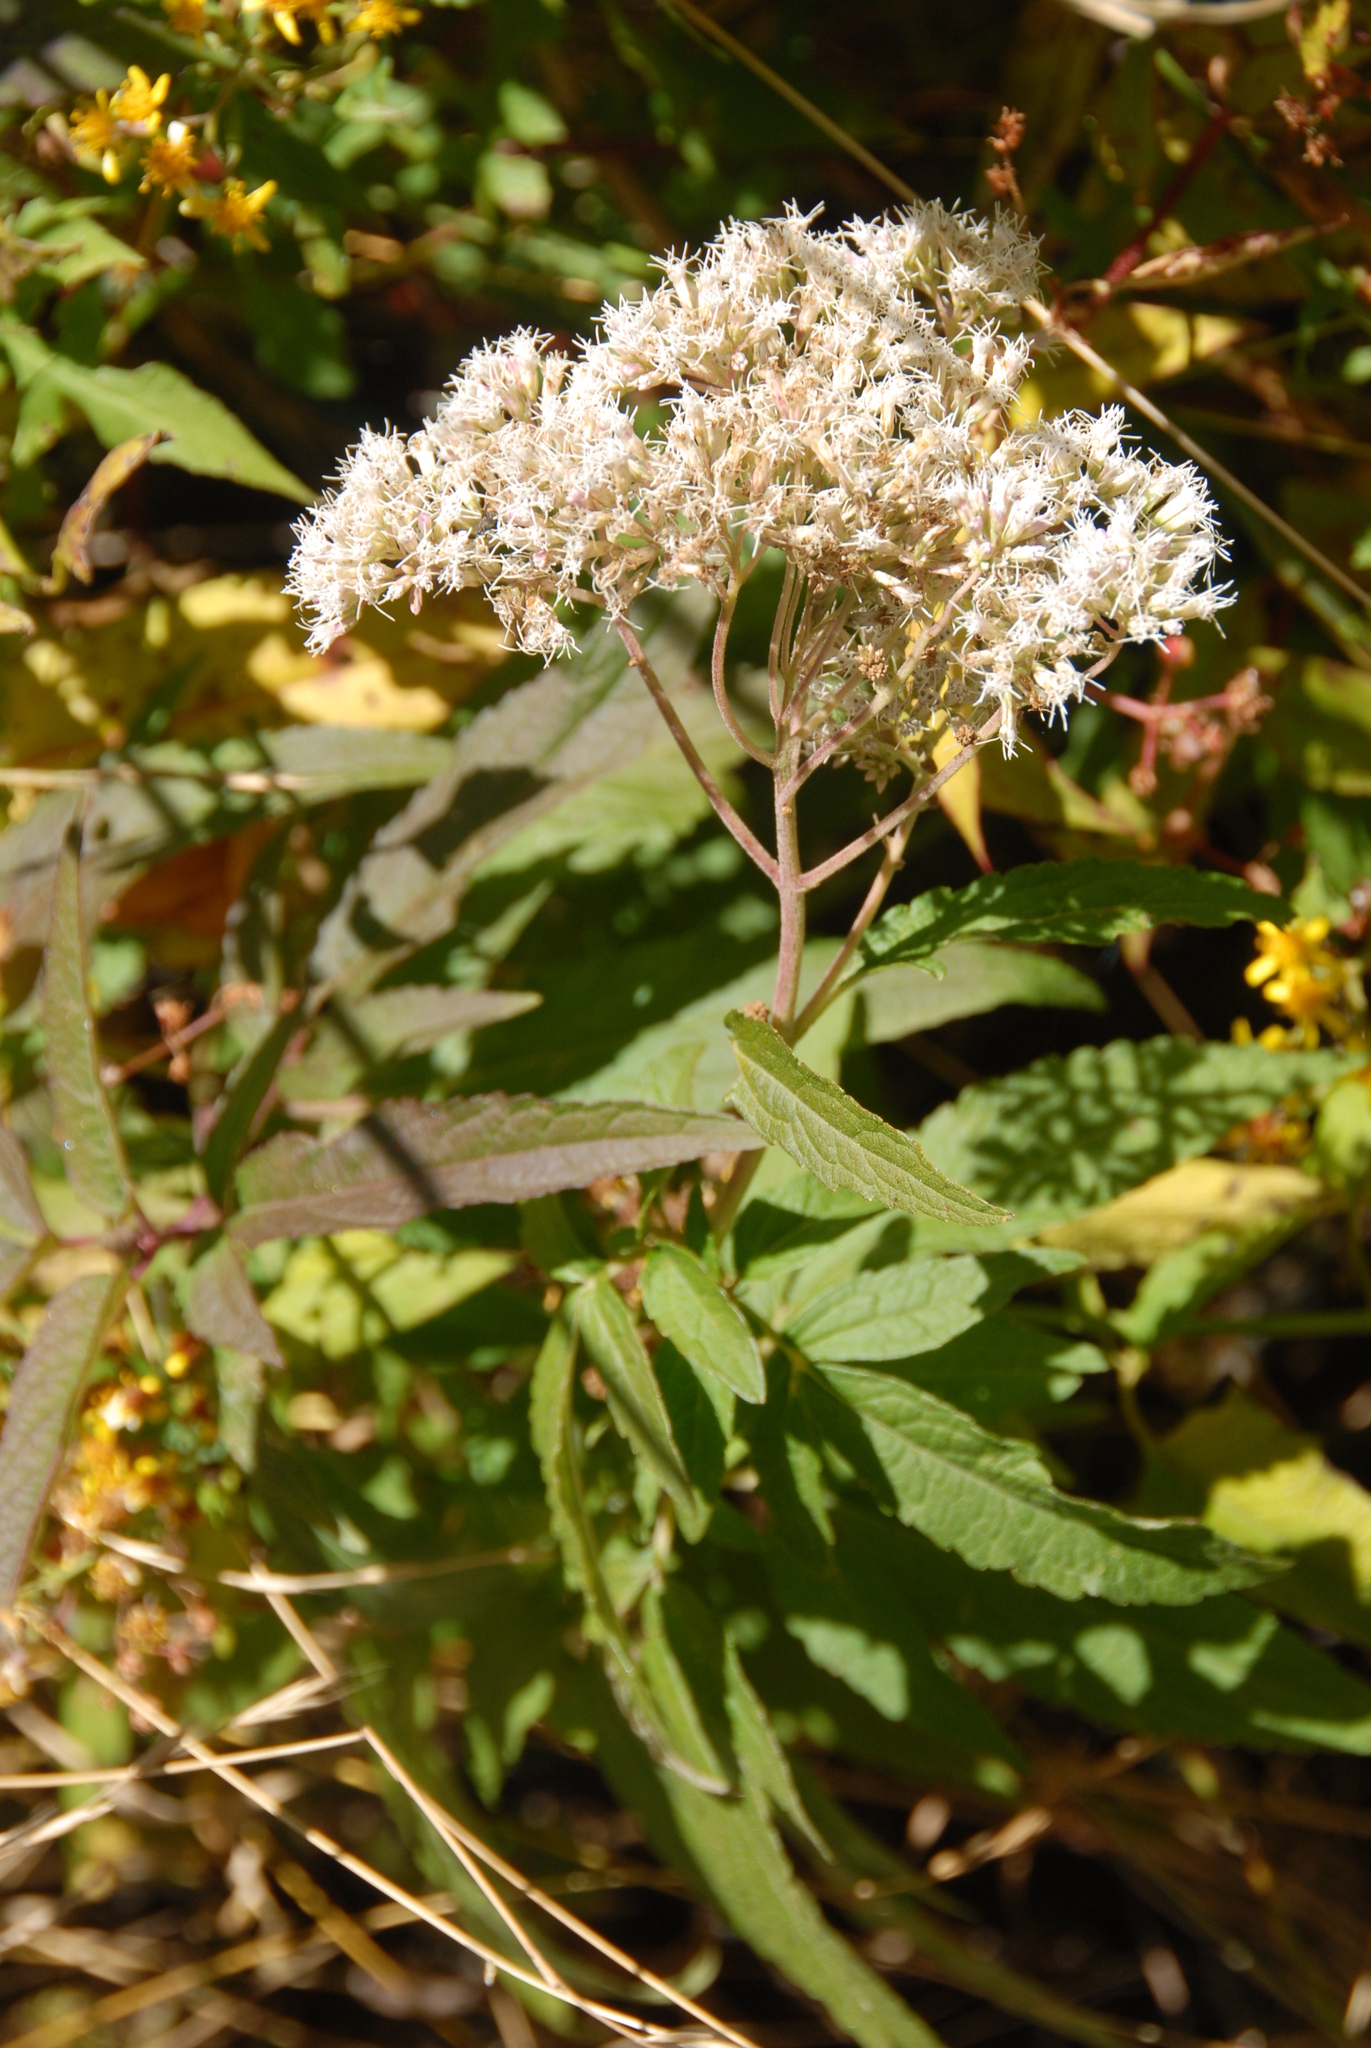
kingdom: Plantae
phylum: Tracheophyta
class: Magnoliopsida
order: Asterales
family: Asteraceae
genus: Eupatorium
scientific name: Eupatorium formosanum
